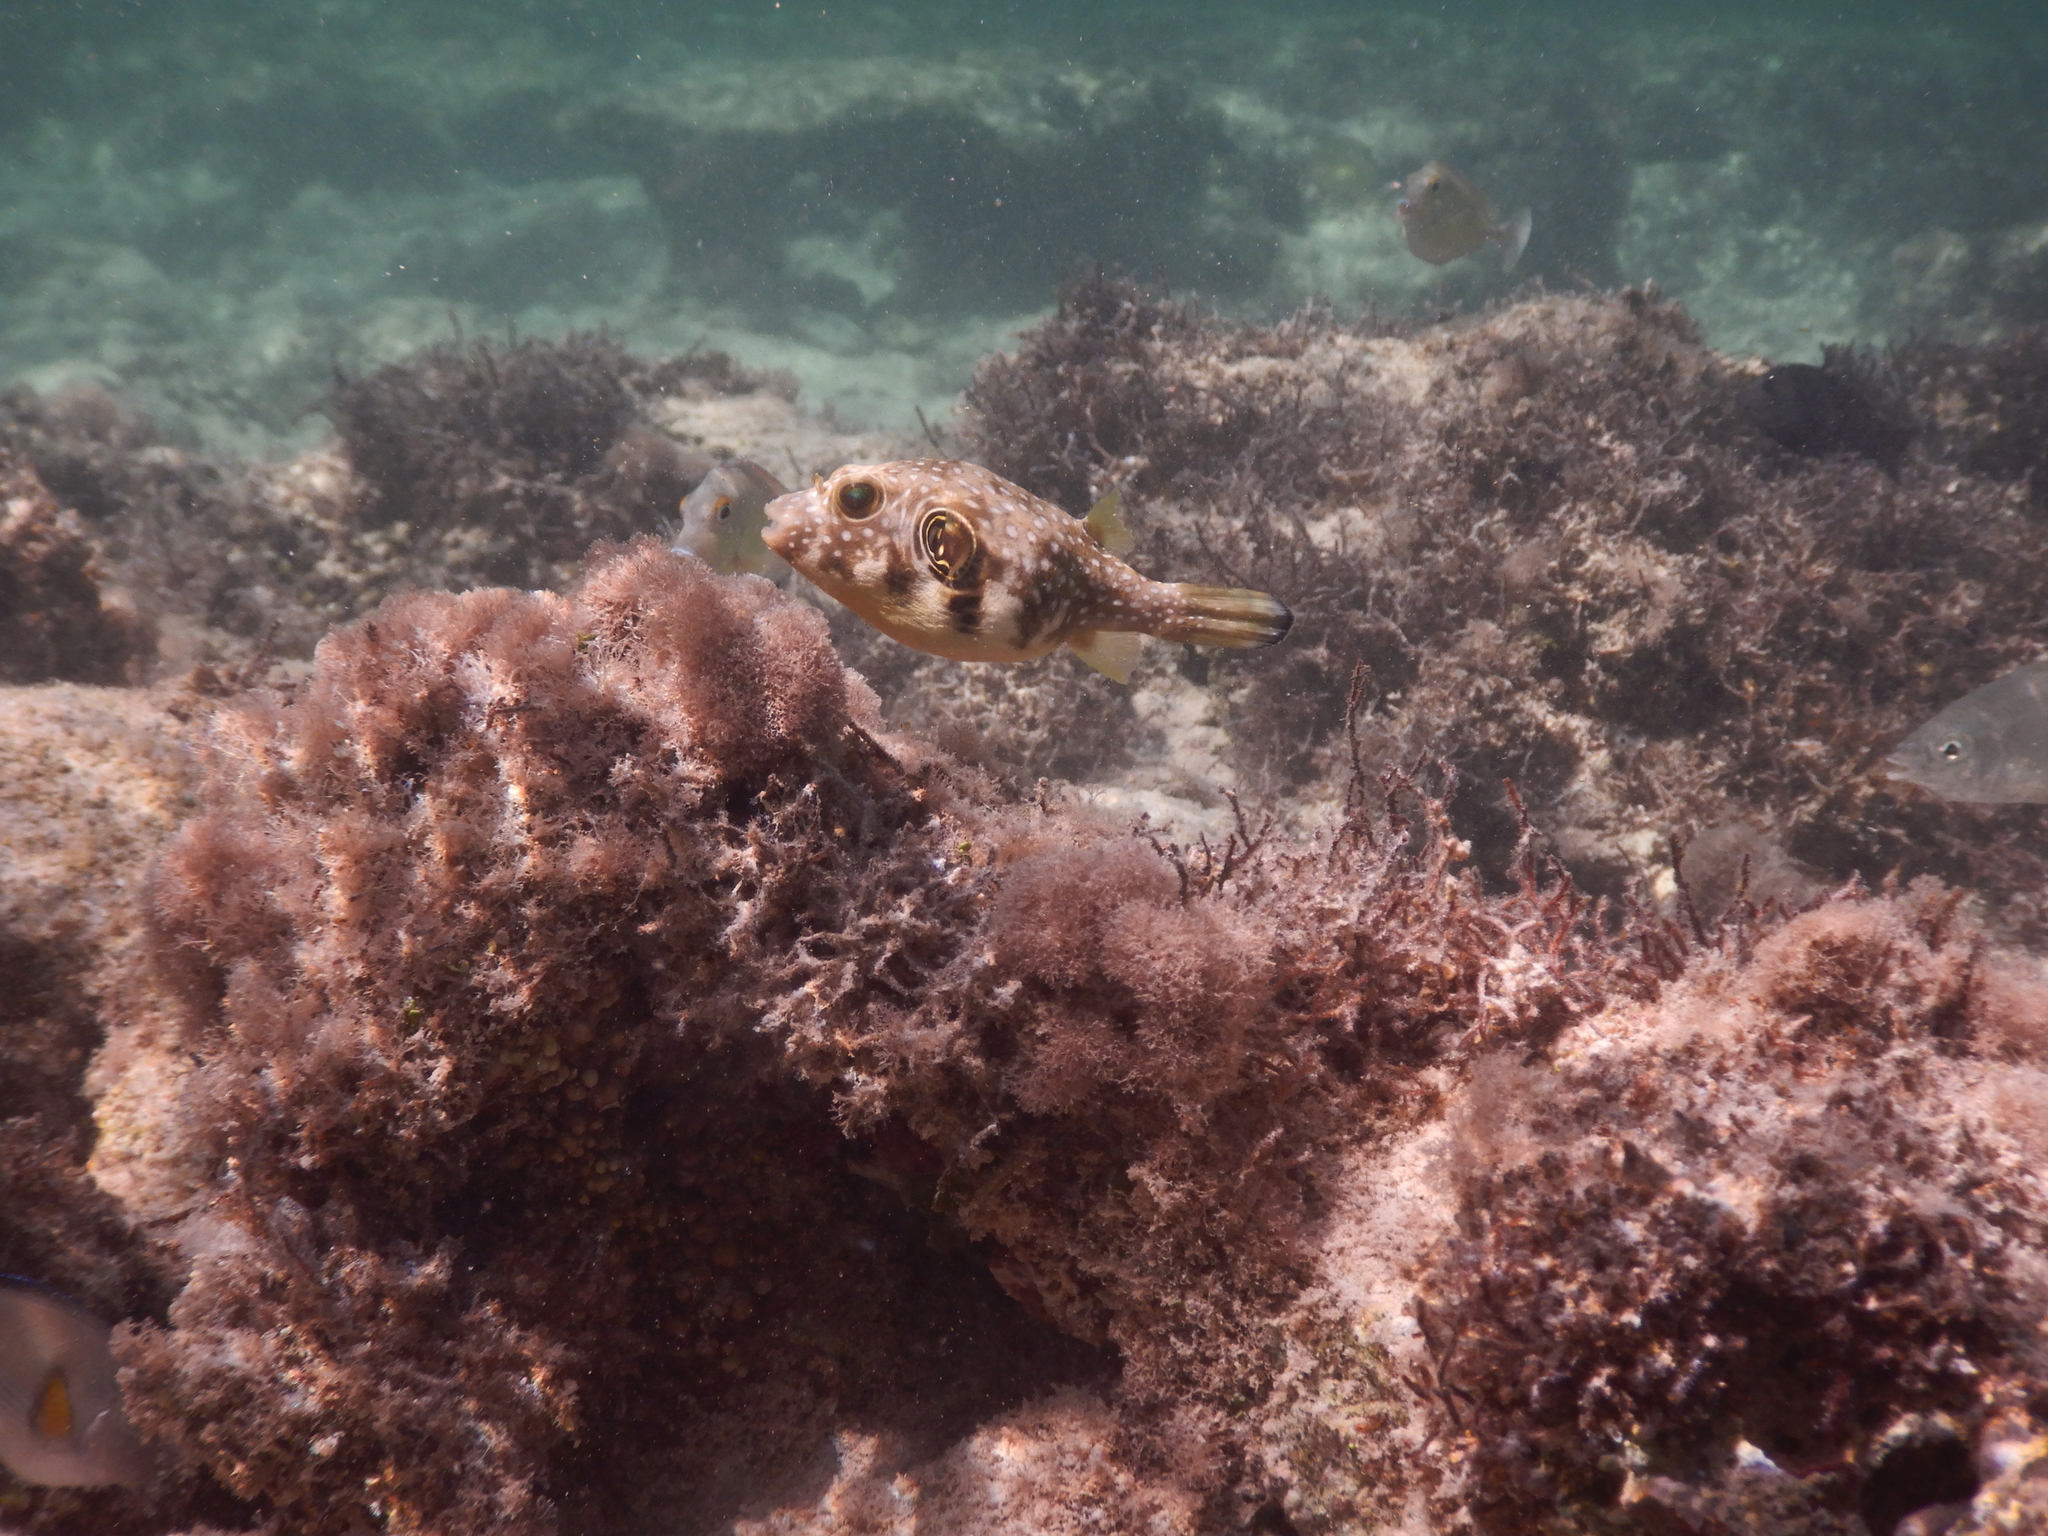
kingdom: Animalia
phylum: Chordata
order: Tetraodontiformes
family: Tetraodontidae
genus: Arothron
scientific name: Arothron hispidus
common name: Stripebelly puffer
